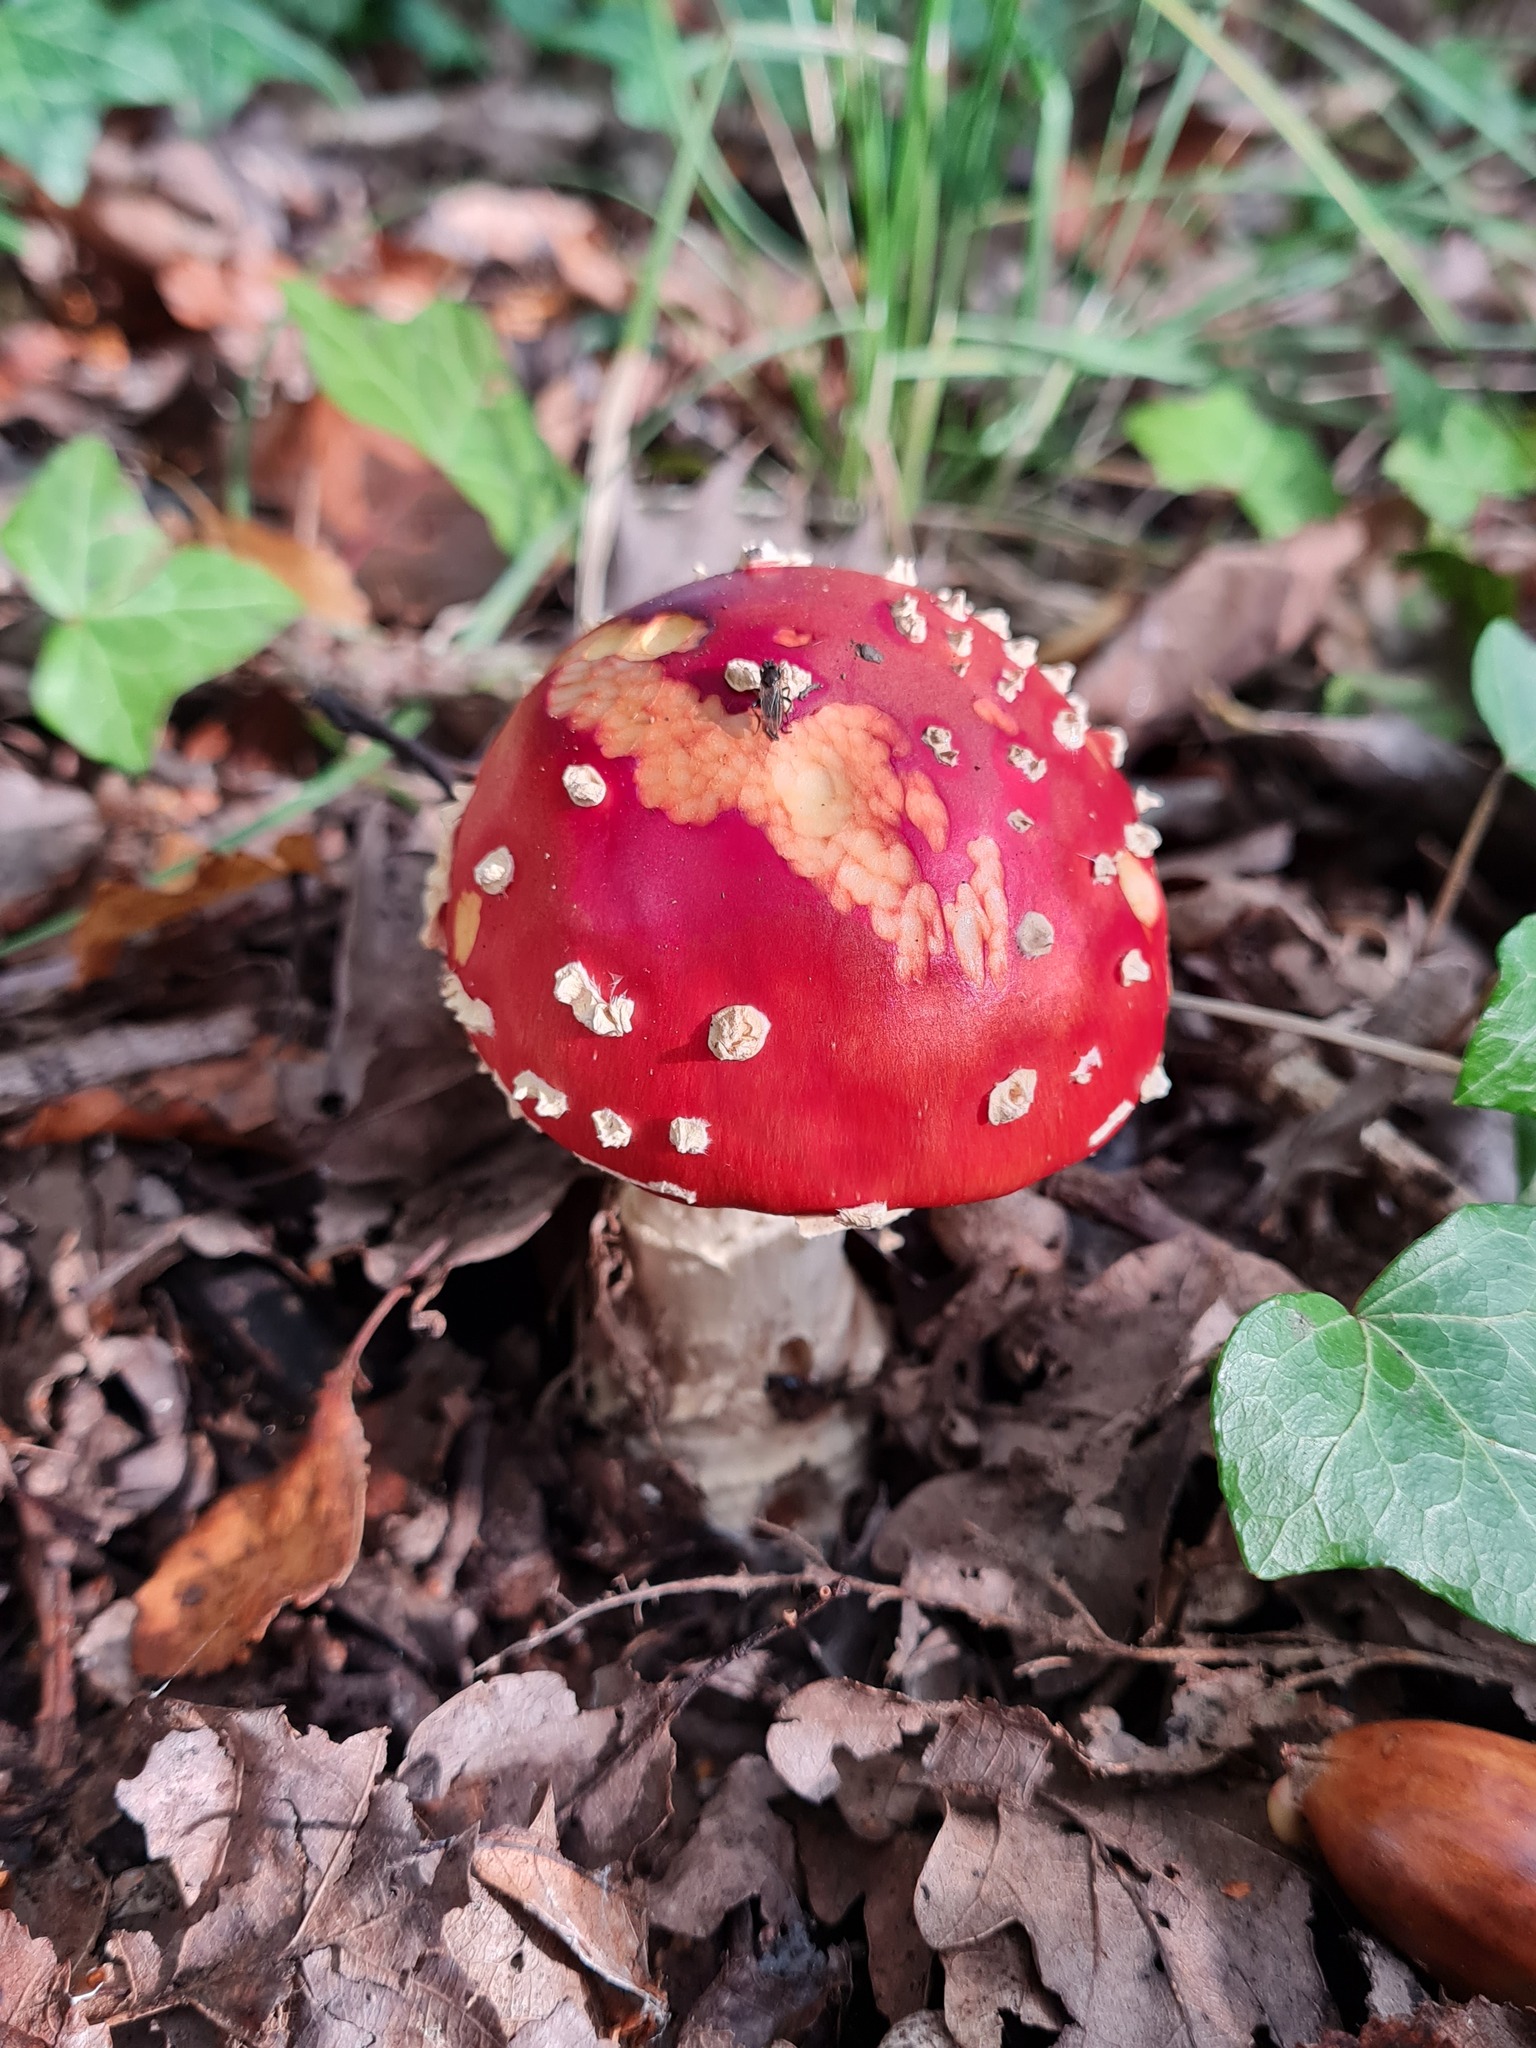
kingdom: Fungi
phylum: Basidiomycota
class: Agaricomycetes
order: Agaricales
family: Amanitaceae
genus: Amanita
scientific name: Amanita muscaria
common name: Fly agaric
